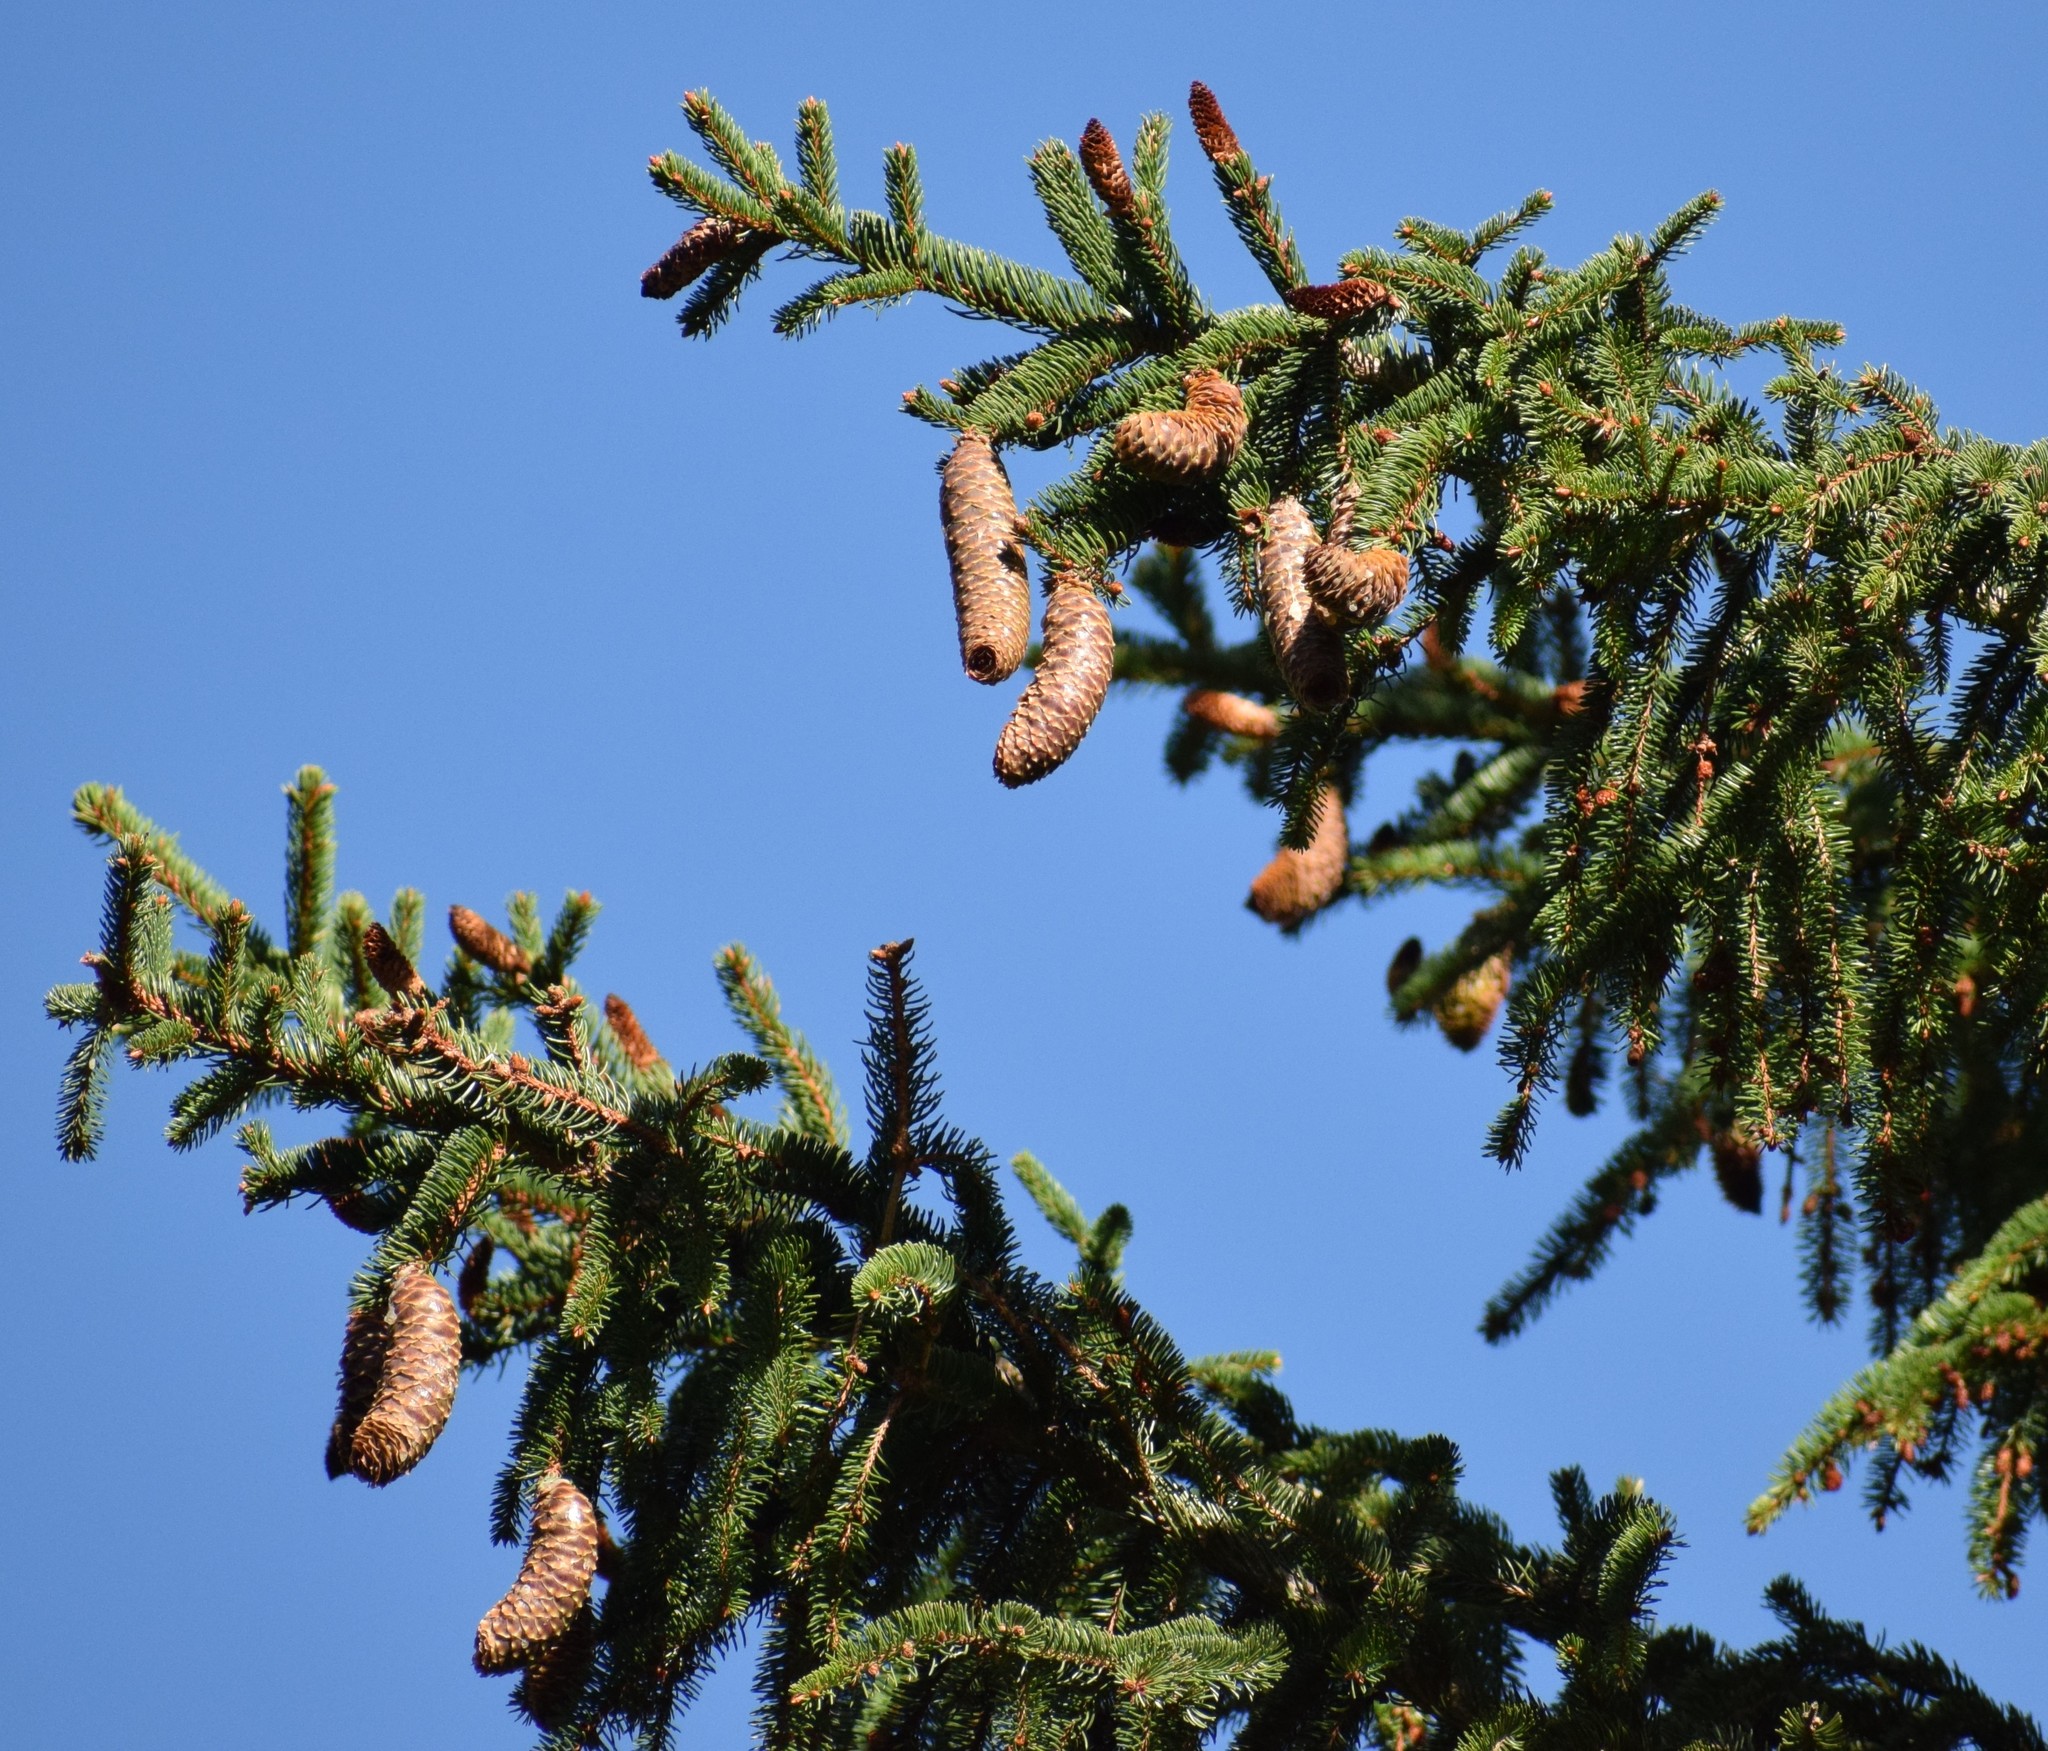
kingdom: Plantae
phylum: Tracheophyta
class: Pinopsida
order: Pinales
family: Pinaceae
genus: Picea
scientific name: Picea abies
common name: Norway spruce
